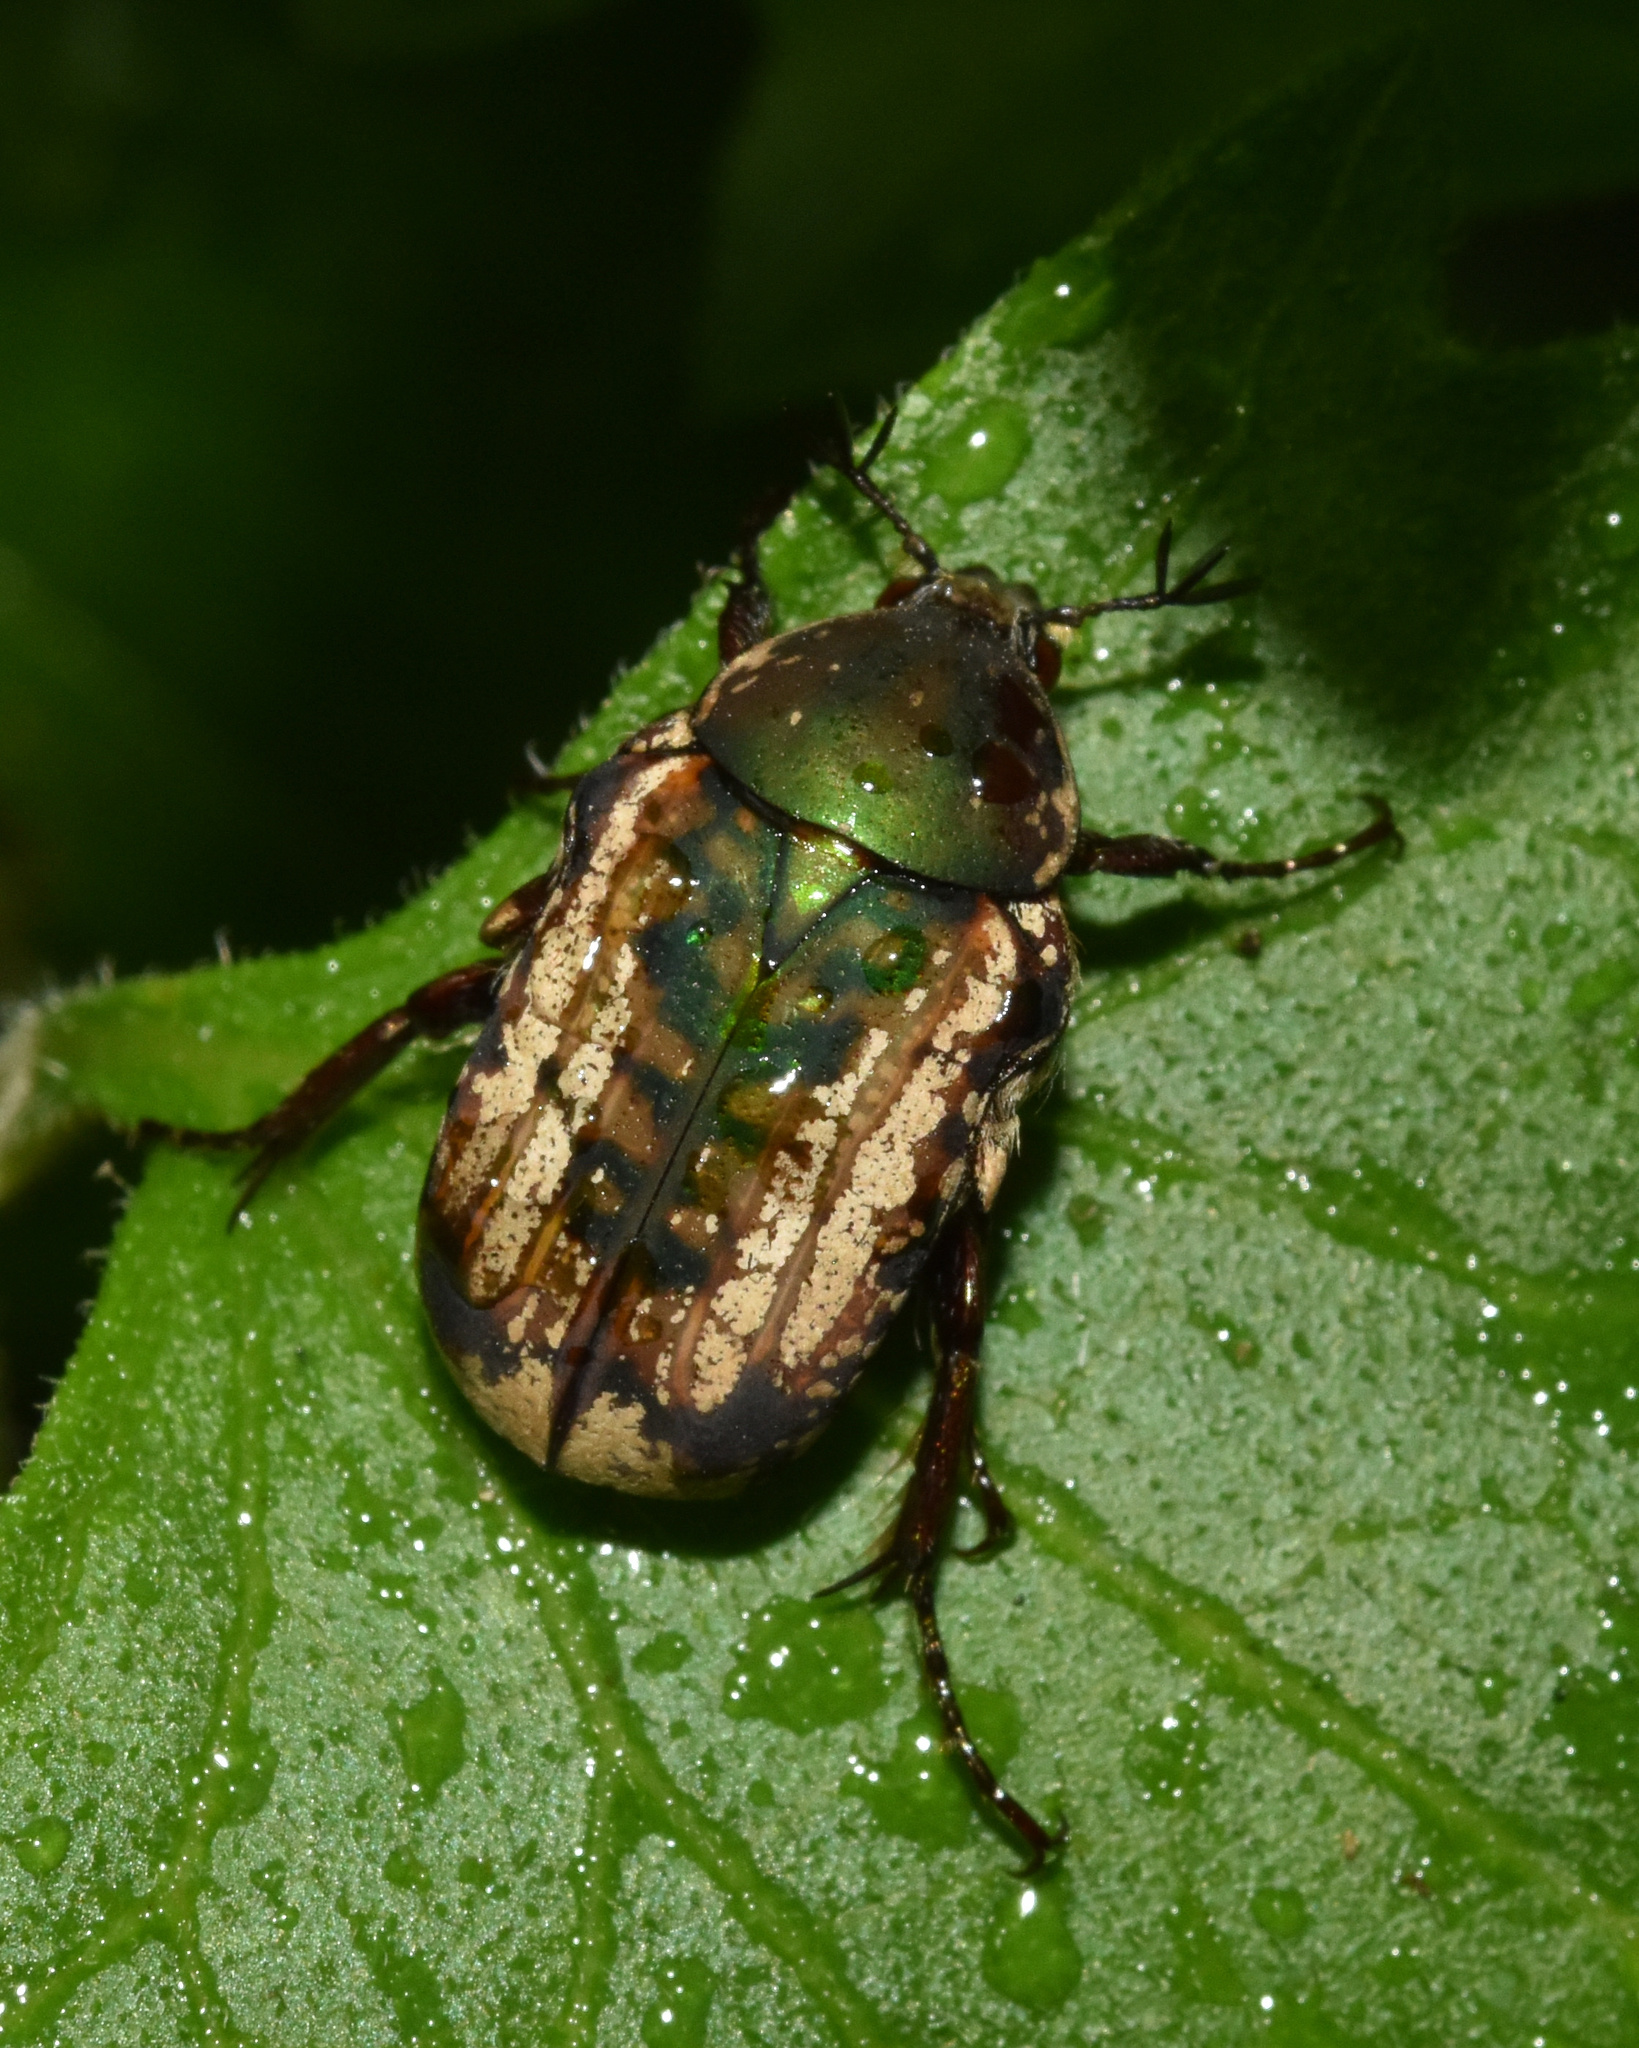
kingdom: Animalia
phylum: Arthropoda
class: Insecta
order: Coleoptera
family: Scarabaeidae
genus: Elaphinis
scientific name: Elaphinis irrorata
